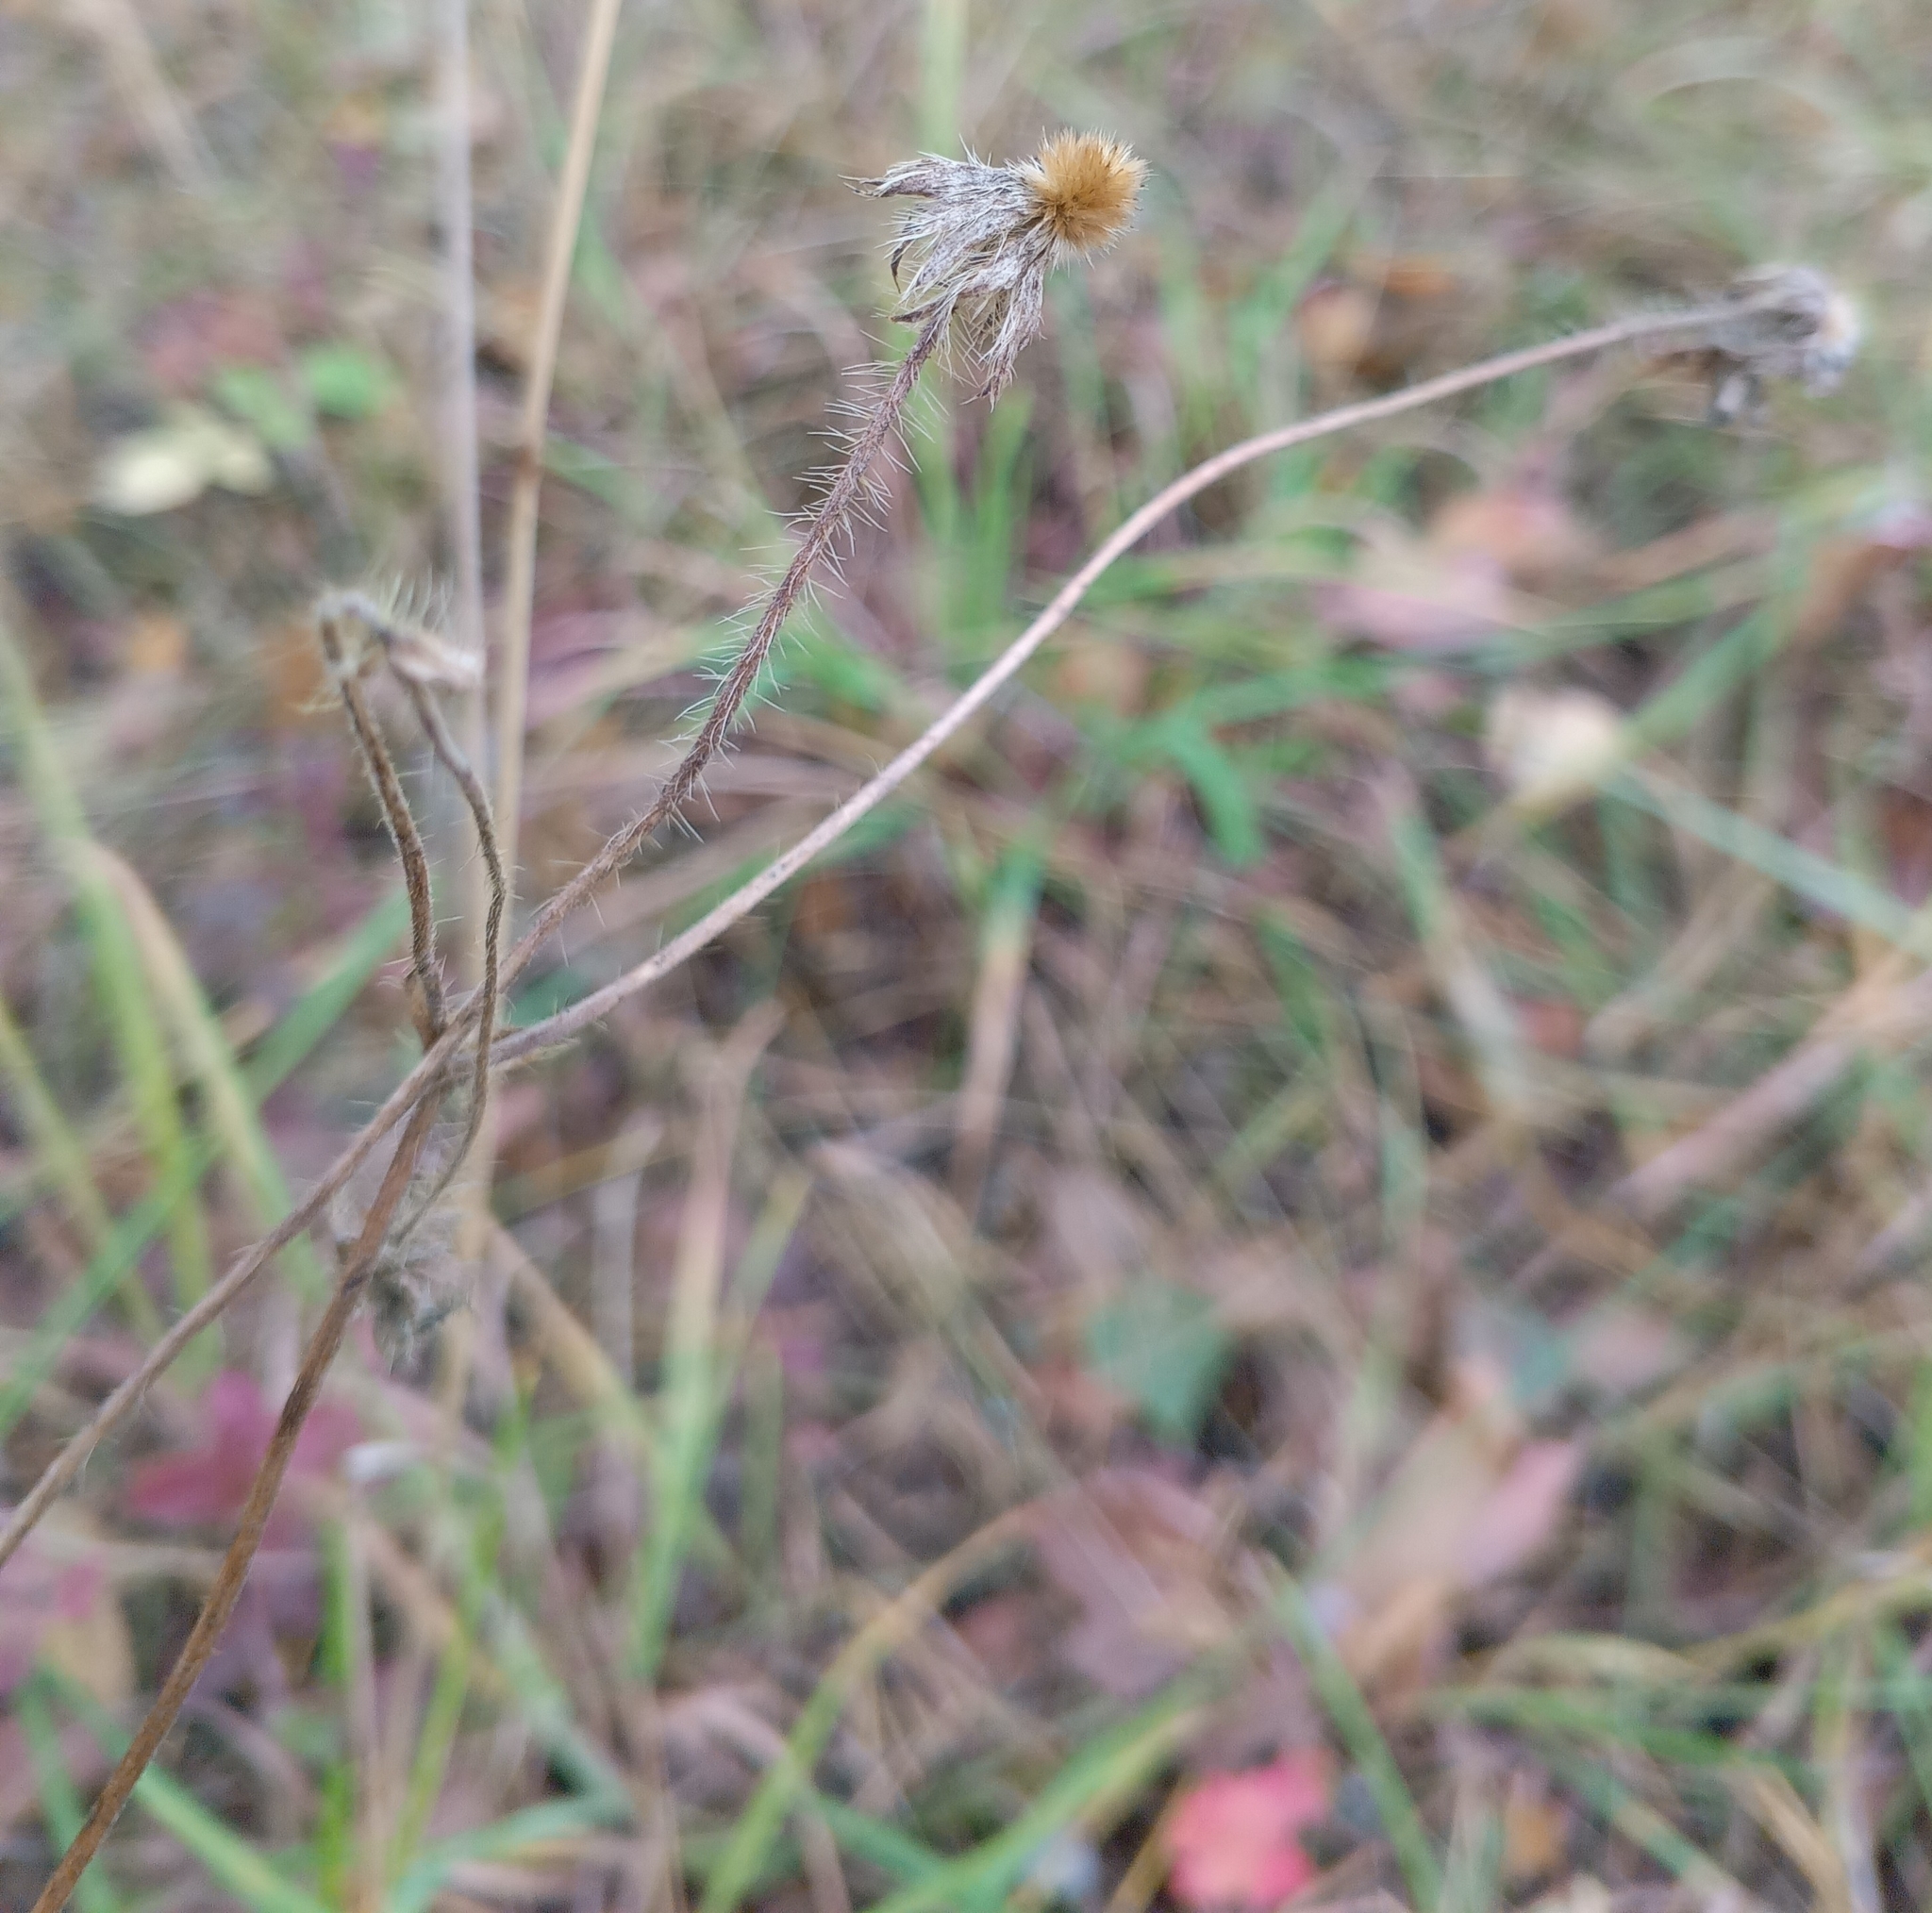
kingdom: Plantae
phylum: Tracheophyta
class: Magnoliopsida
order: Dipsacales
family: Caprifoliaceae
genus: Knautia
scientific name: Knautia arvensis
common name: Field scabiosa
